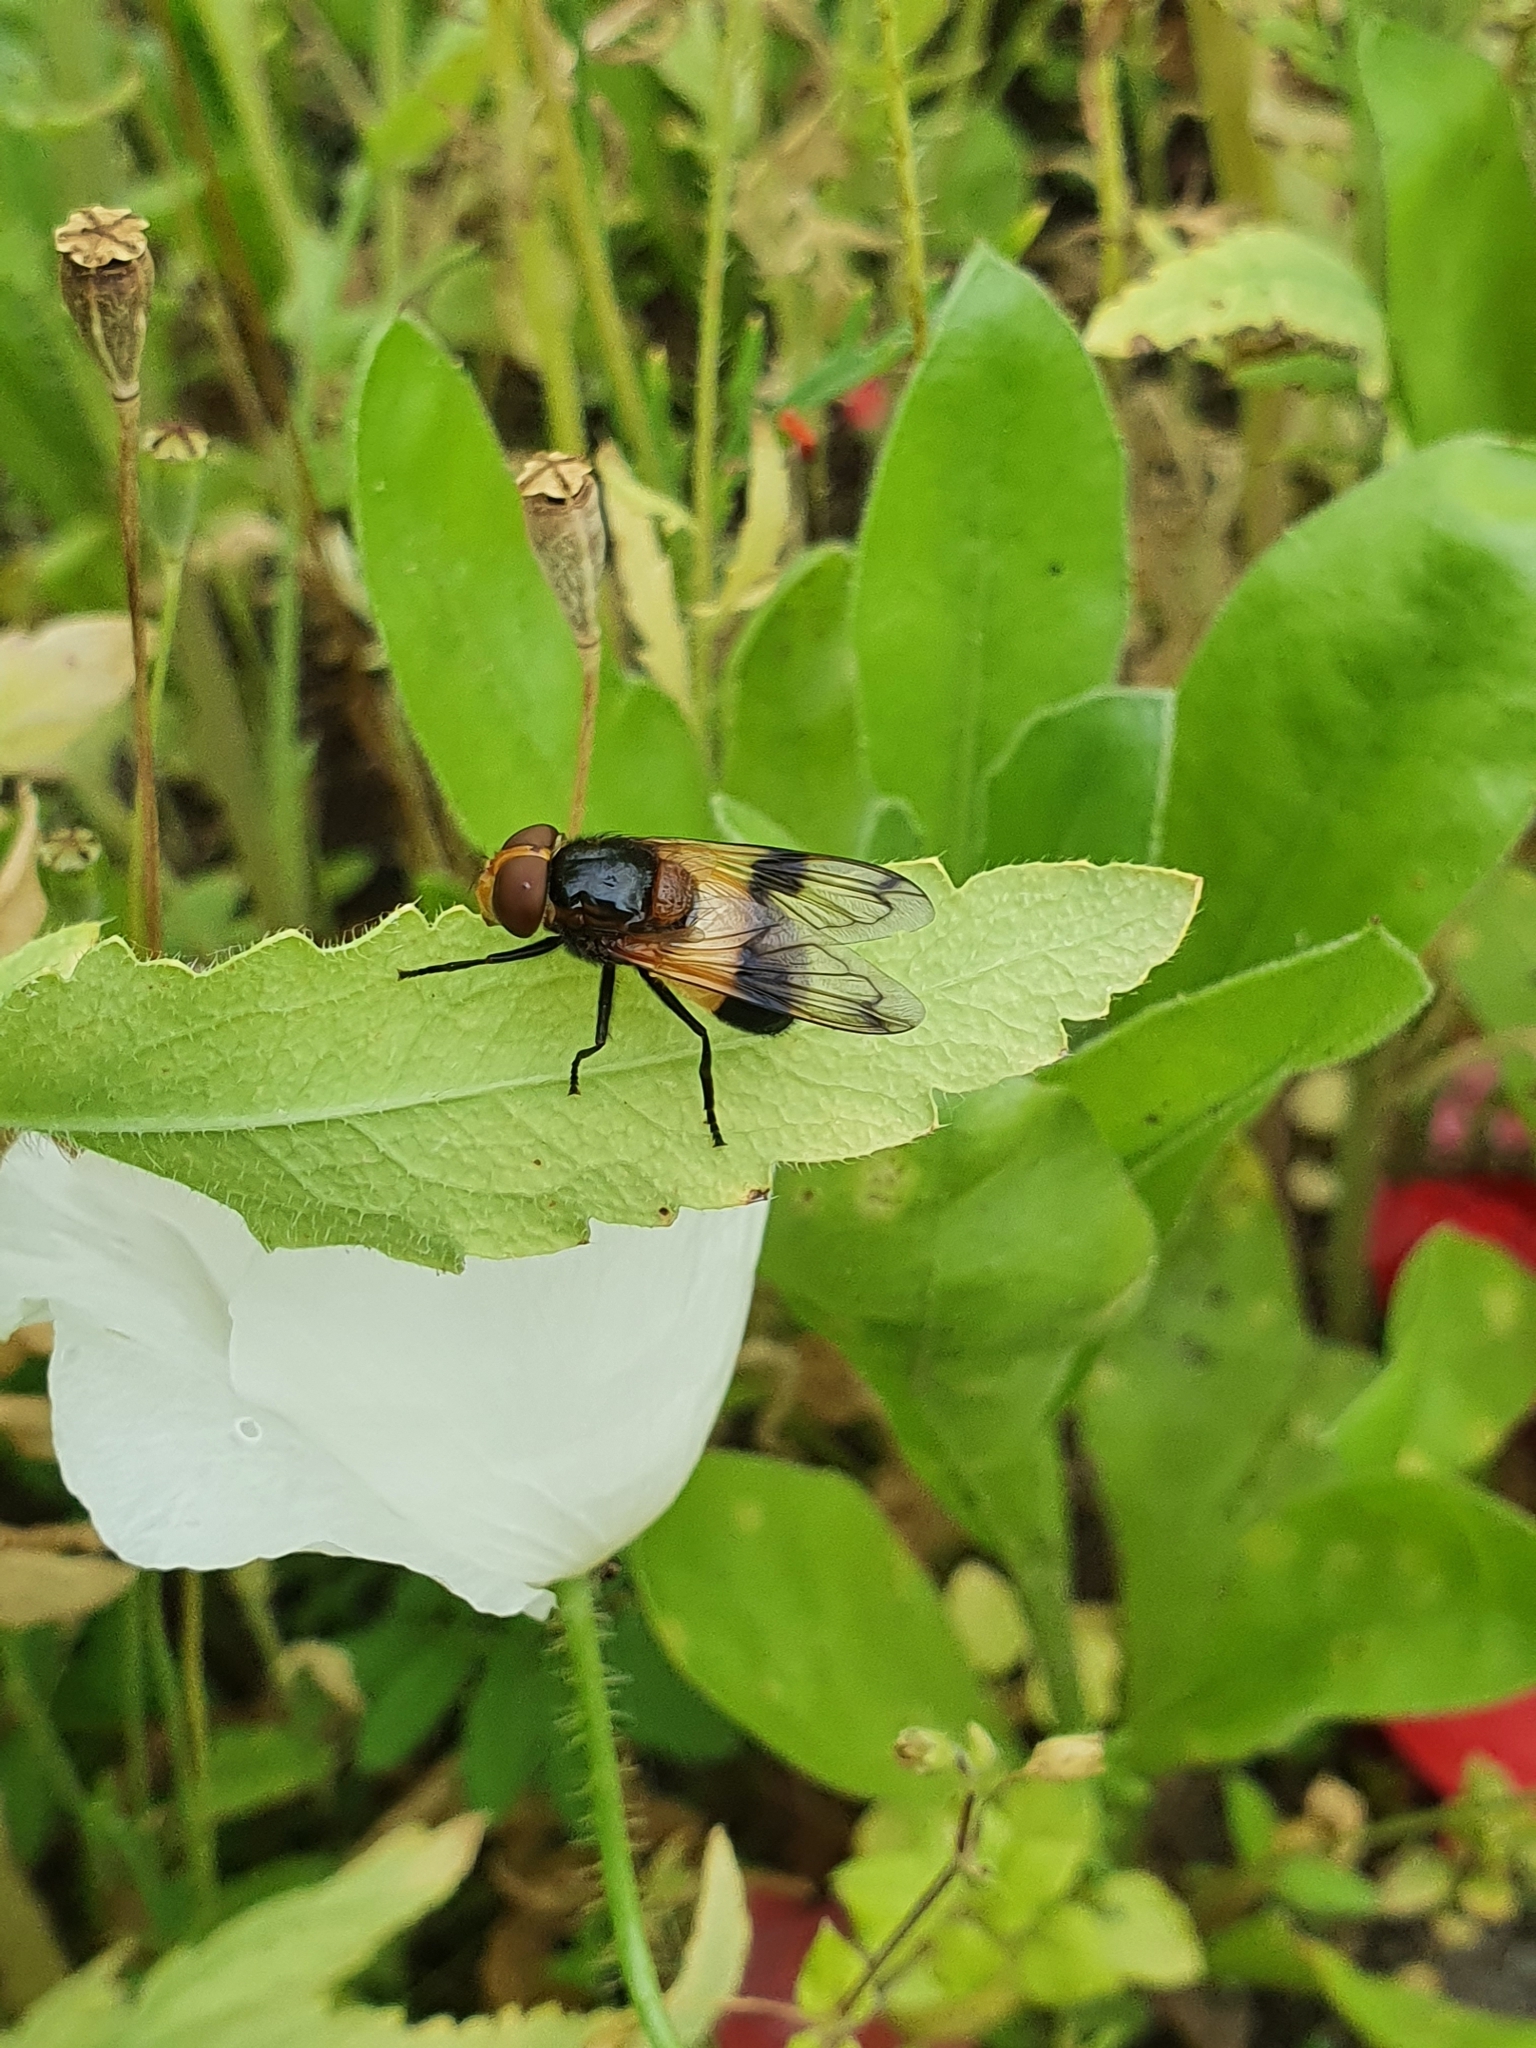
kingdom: Animalia
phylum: Arthropoda
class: Insecta
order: Diptera
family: Syrphidae
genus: Volucella
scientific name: Volucella pellucens
